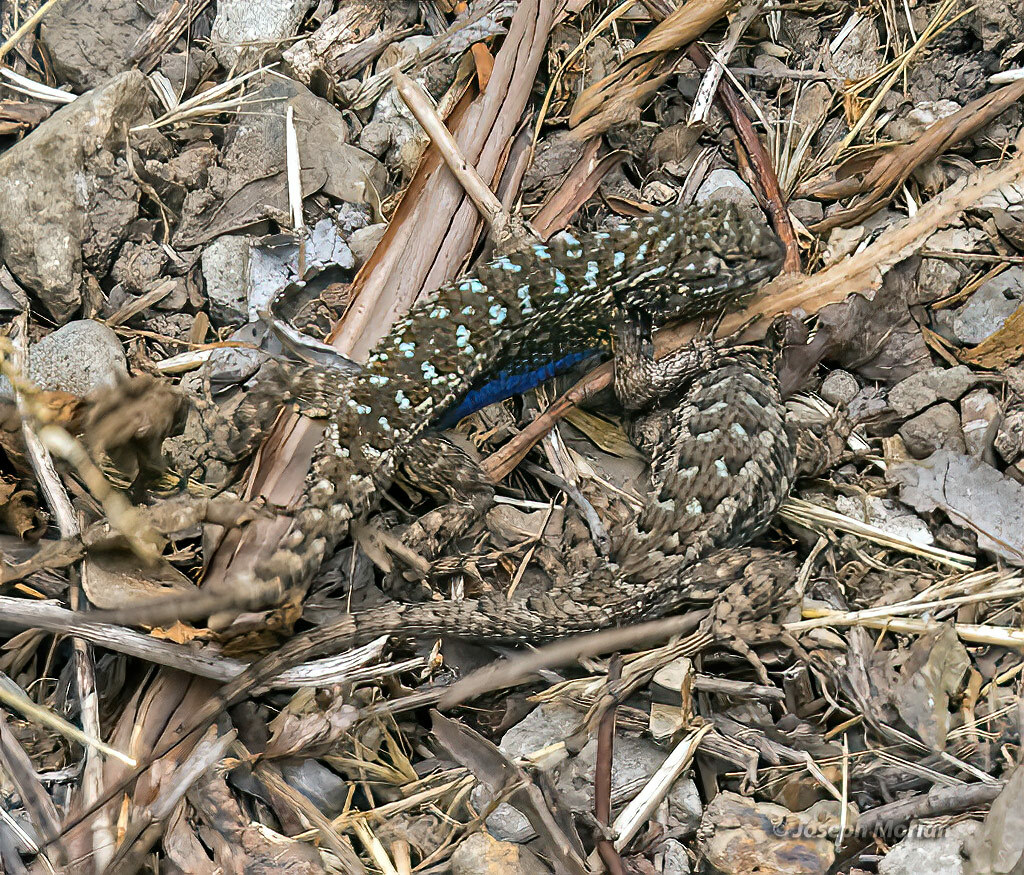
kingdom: Animalia
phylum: Chordata
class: Squamata
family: Phrynosomatidae
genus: Sceloporus
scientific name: Sceloporus occidentalis
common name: Western fence lizard
